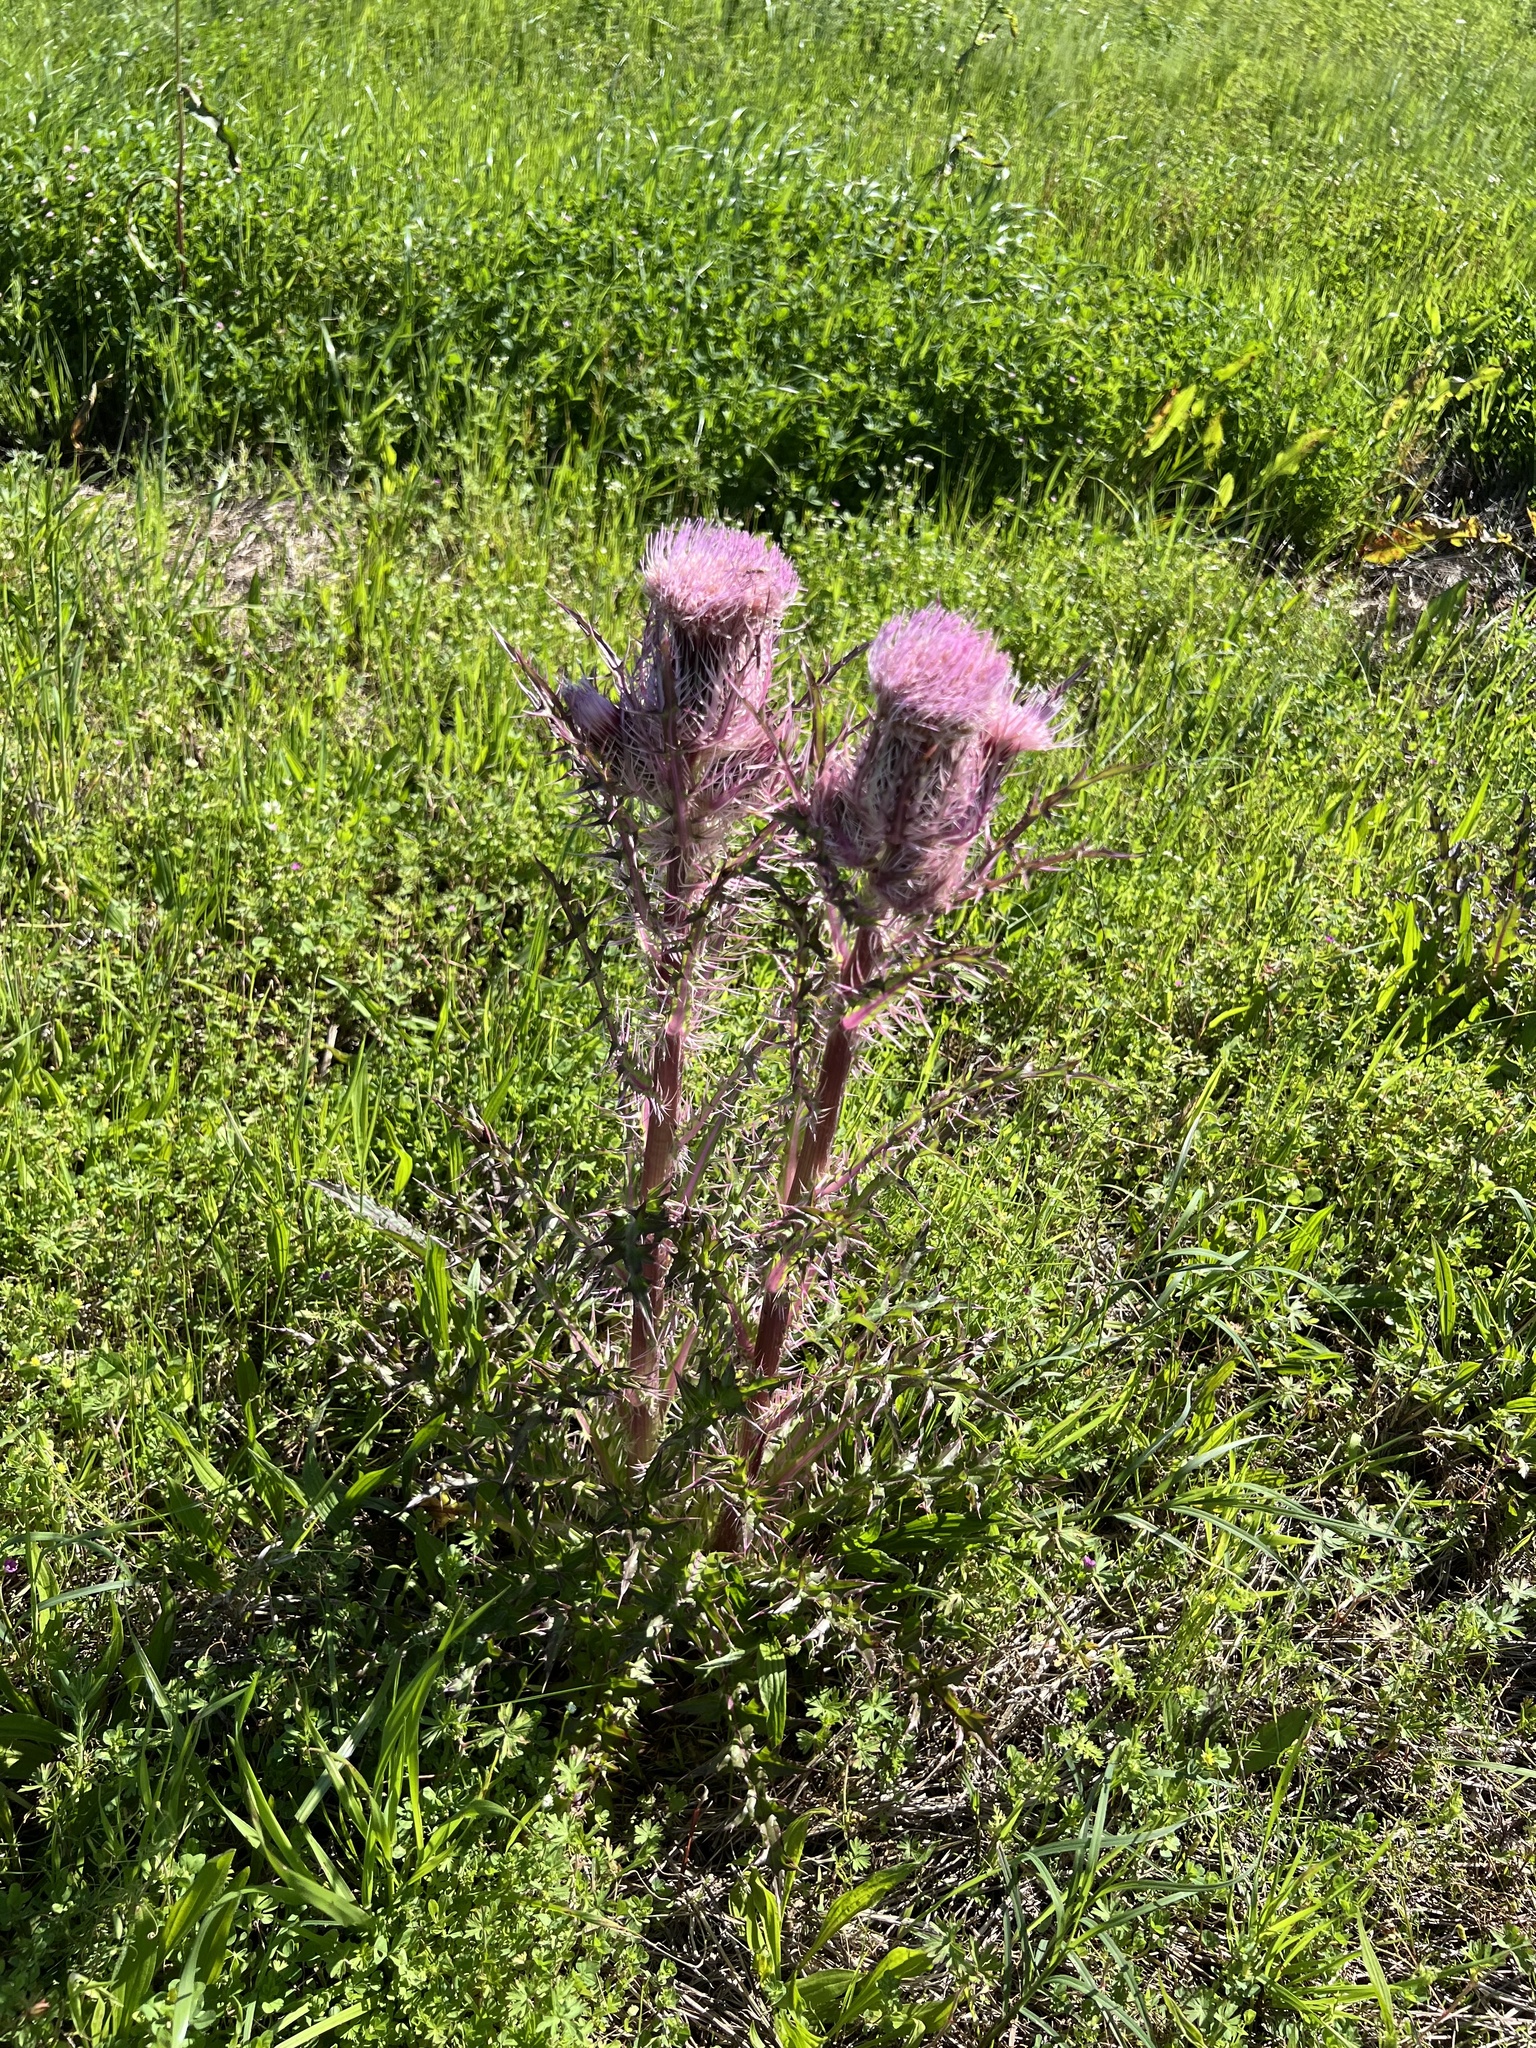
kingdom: Plantae
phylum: Tracheophyta
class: Magnoliopsida
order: Asterales
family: Asteraceae
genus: Cirsium
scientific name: Cirsium horridulum
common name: Bristly thistle
